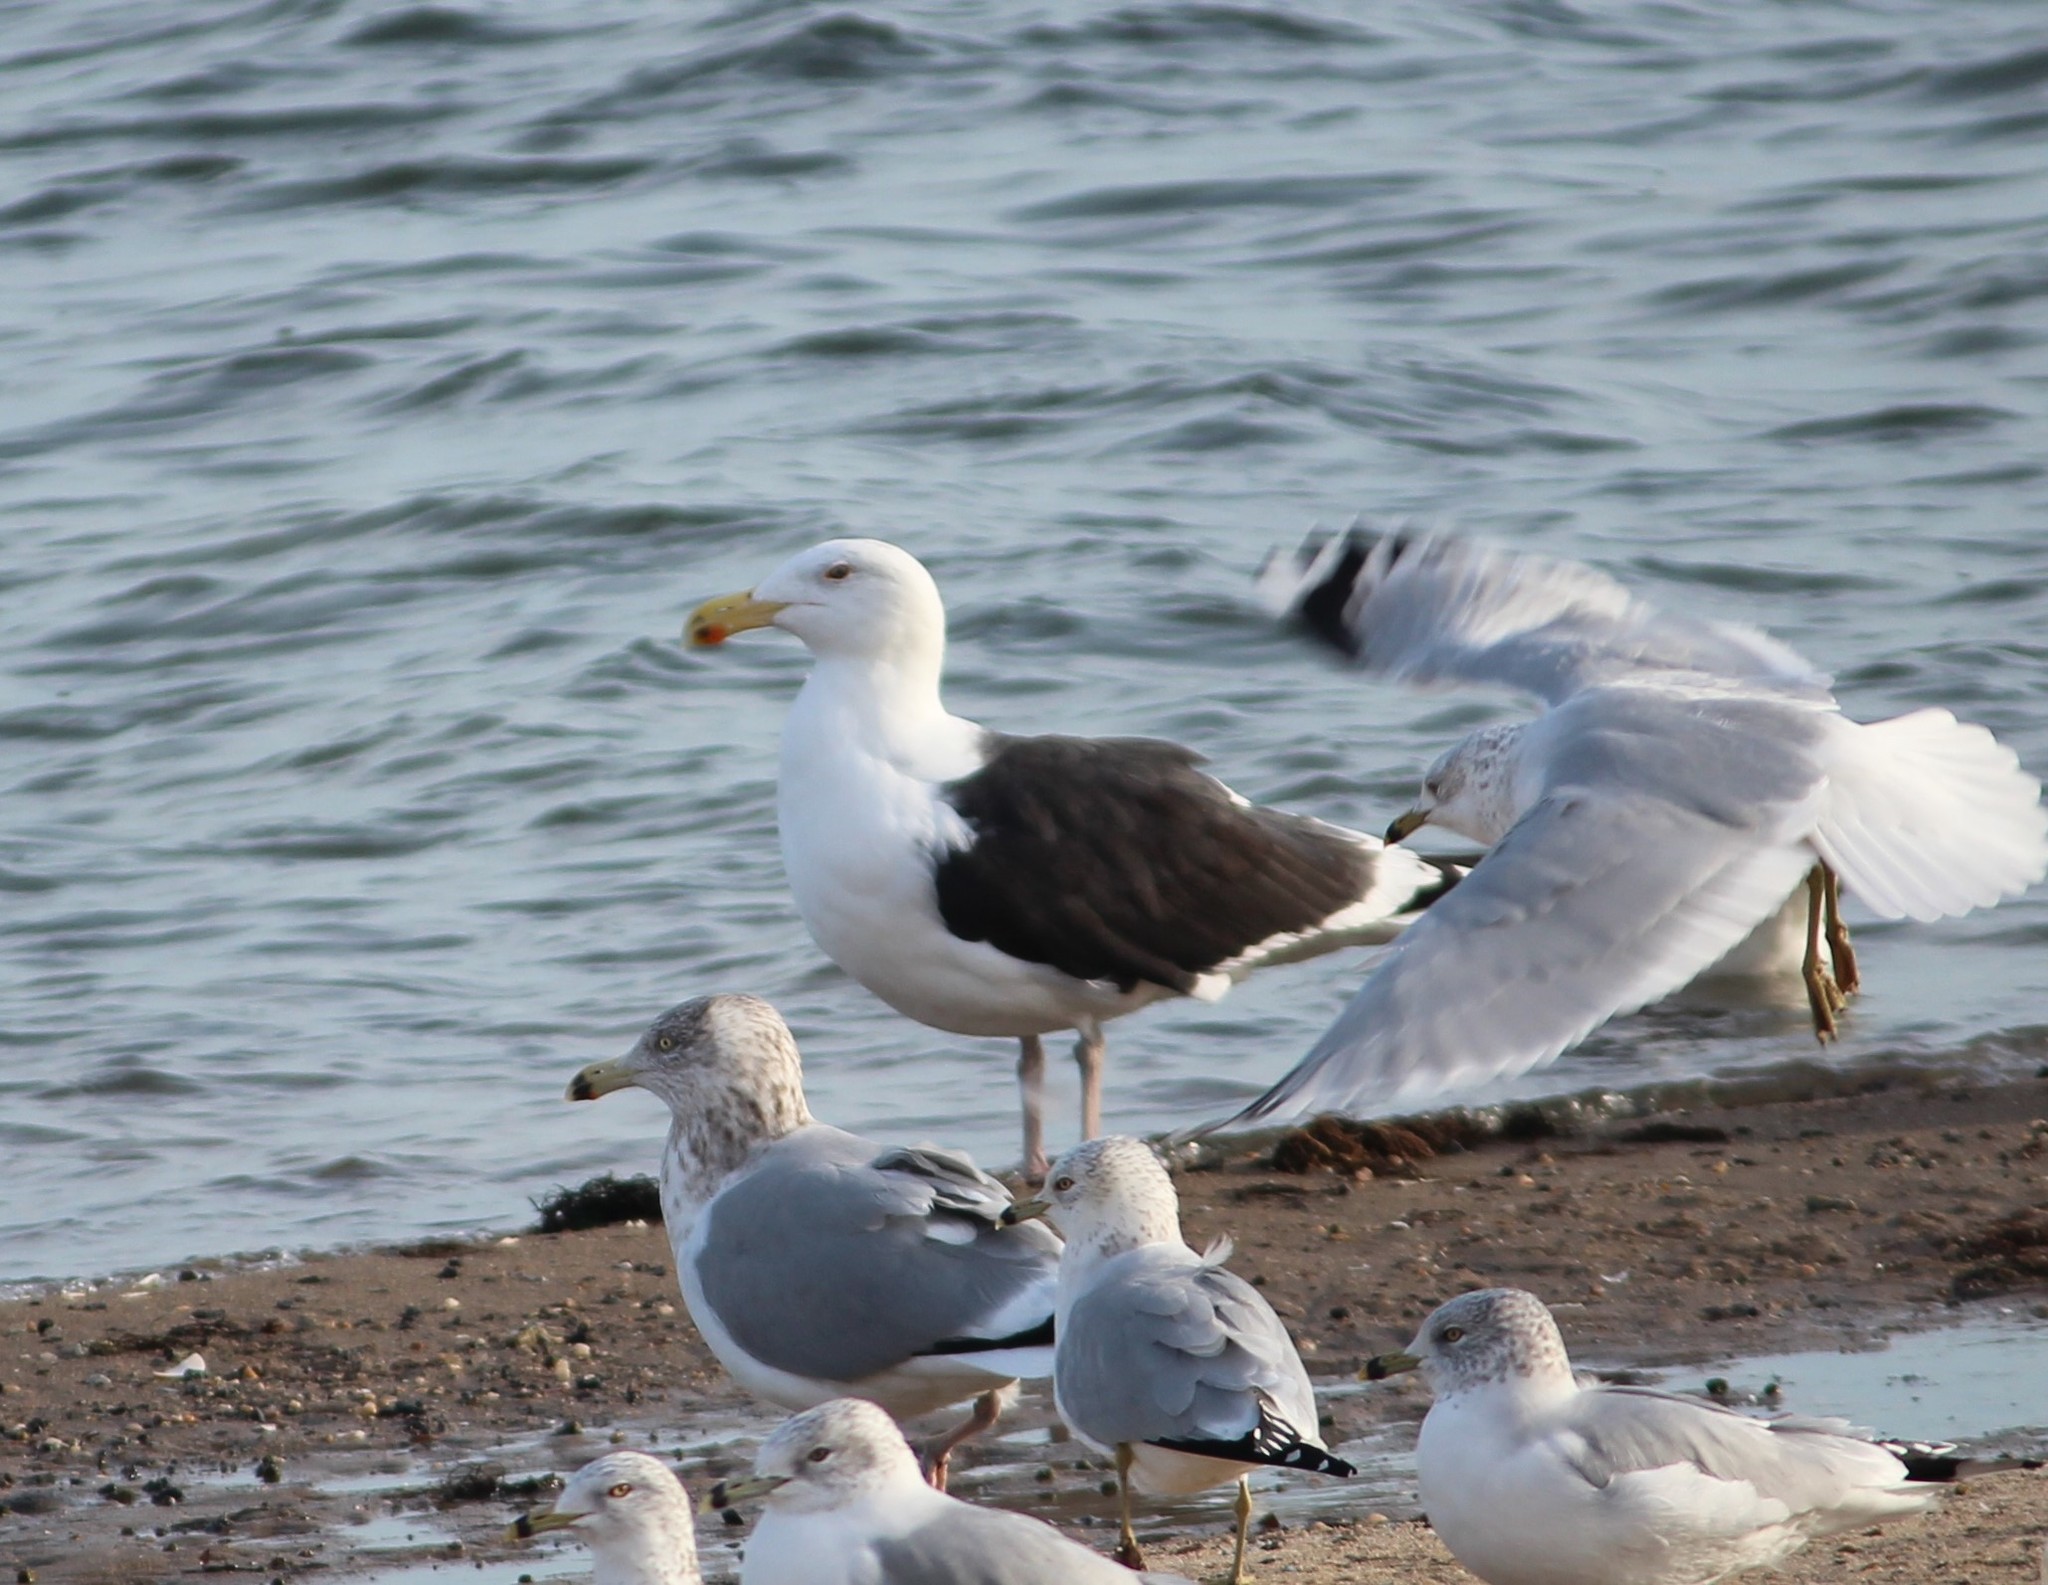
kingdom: Animalia
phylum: Chordata
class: Aves
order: Charadriiformes
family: Laridae
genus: Larus
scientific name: Larus marinus
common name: Great black-backed gull
